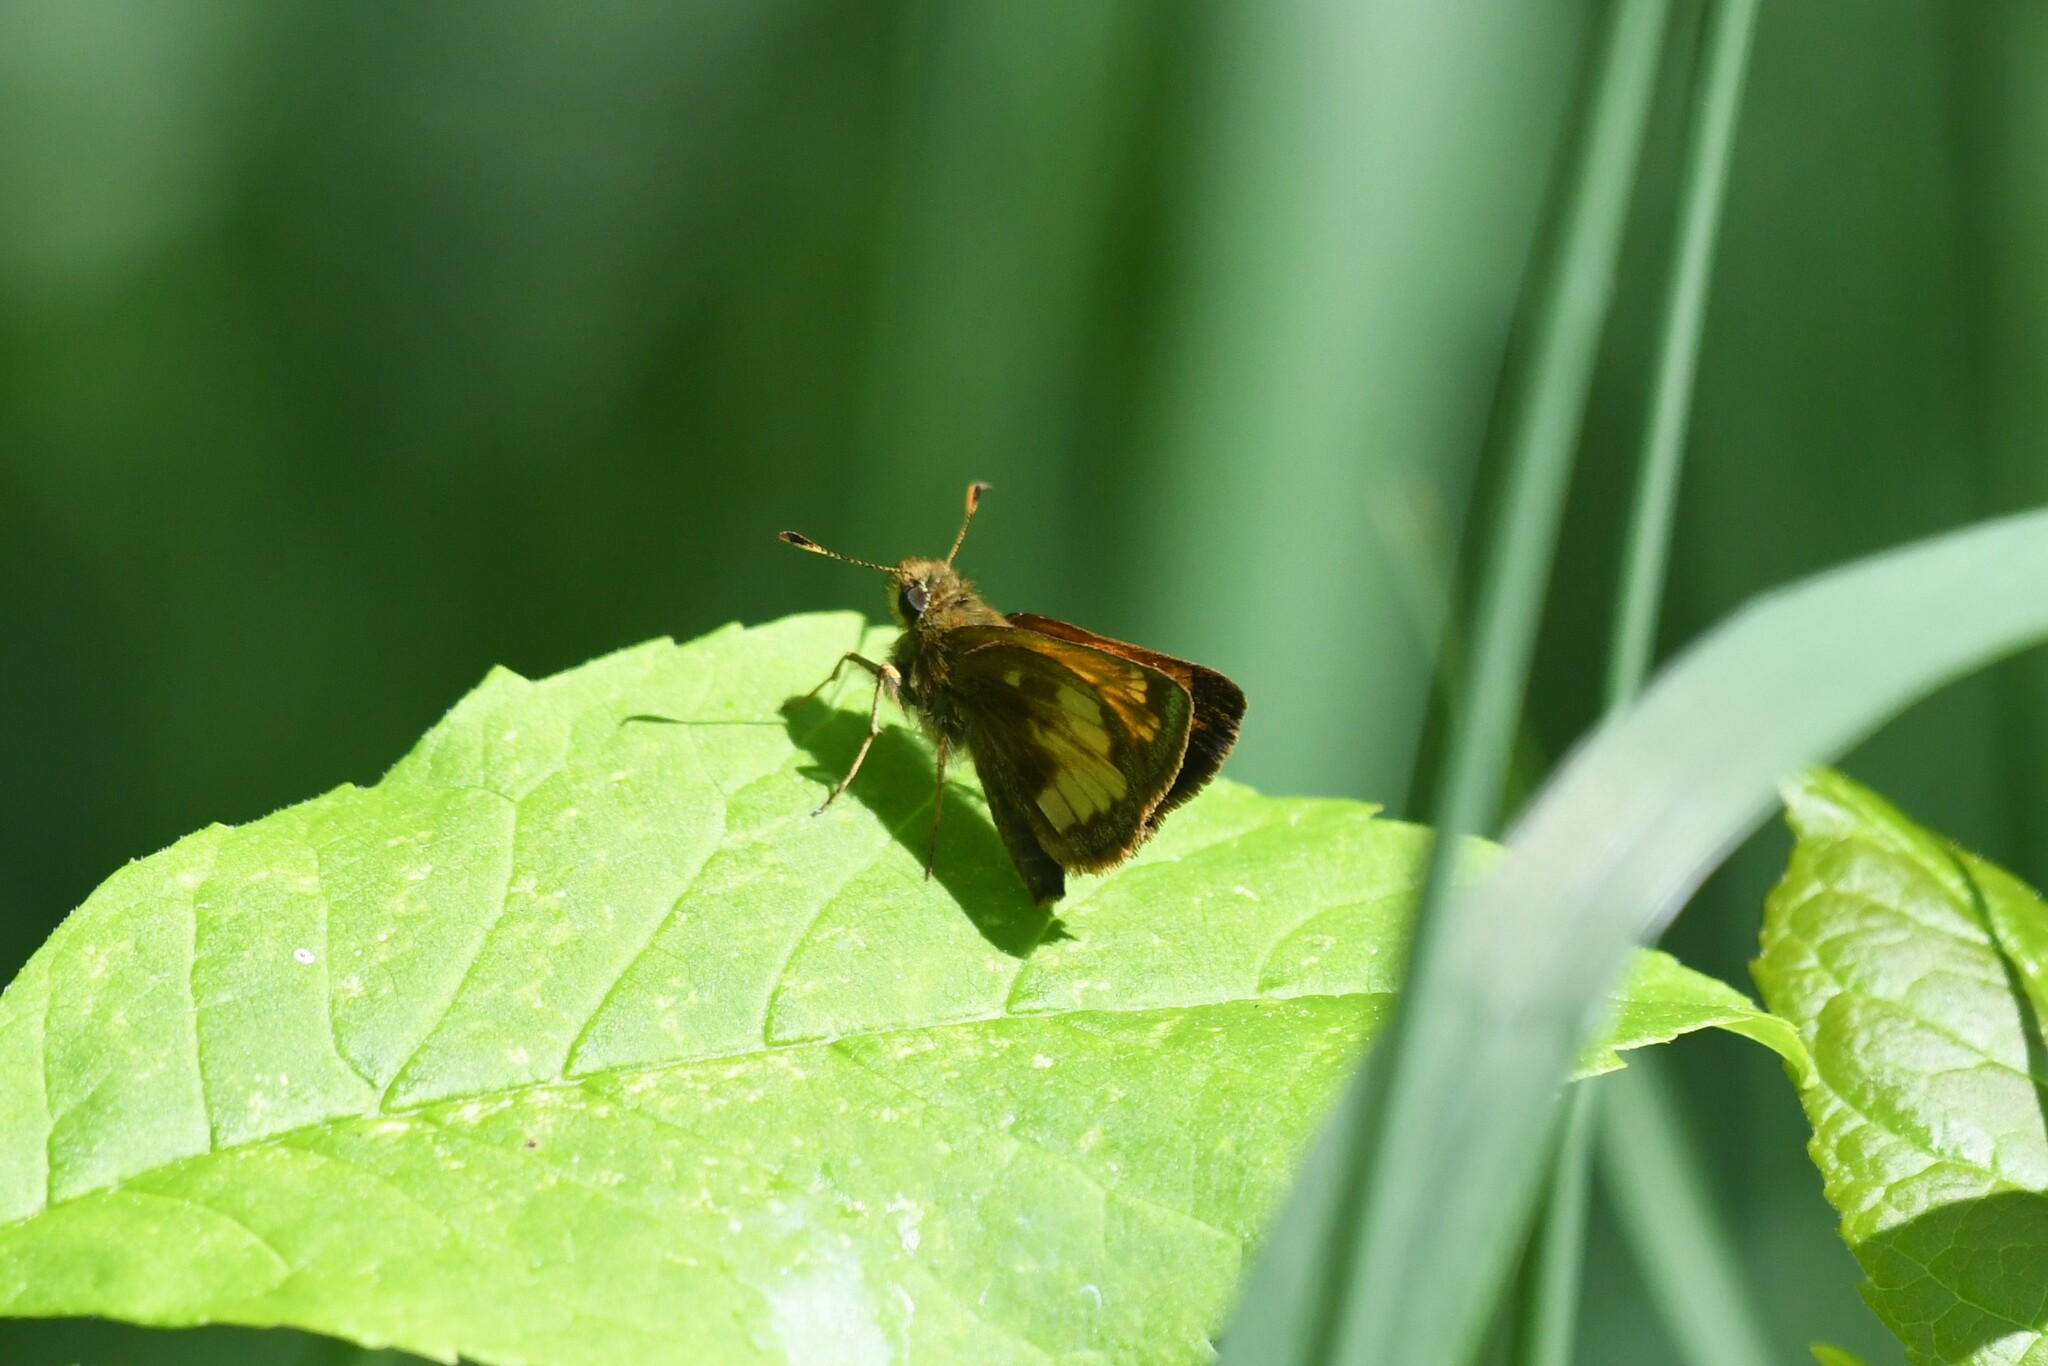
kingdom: Animalia
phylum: Arthropoda
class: Insecta
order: Lepidoptera
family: Hesperiidae
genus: Lon
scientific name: Lon hobomok
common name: Hobomok skipper
